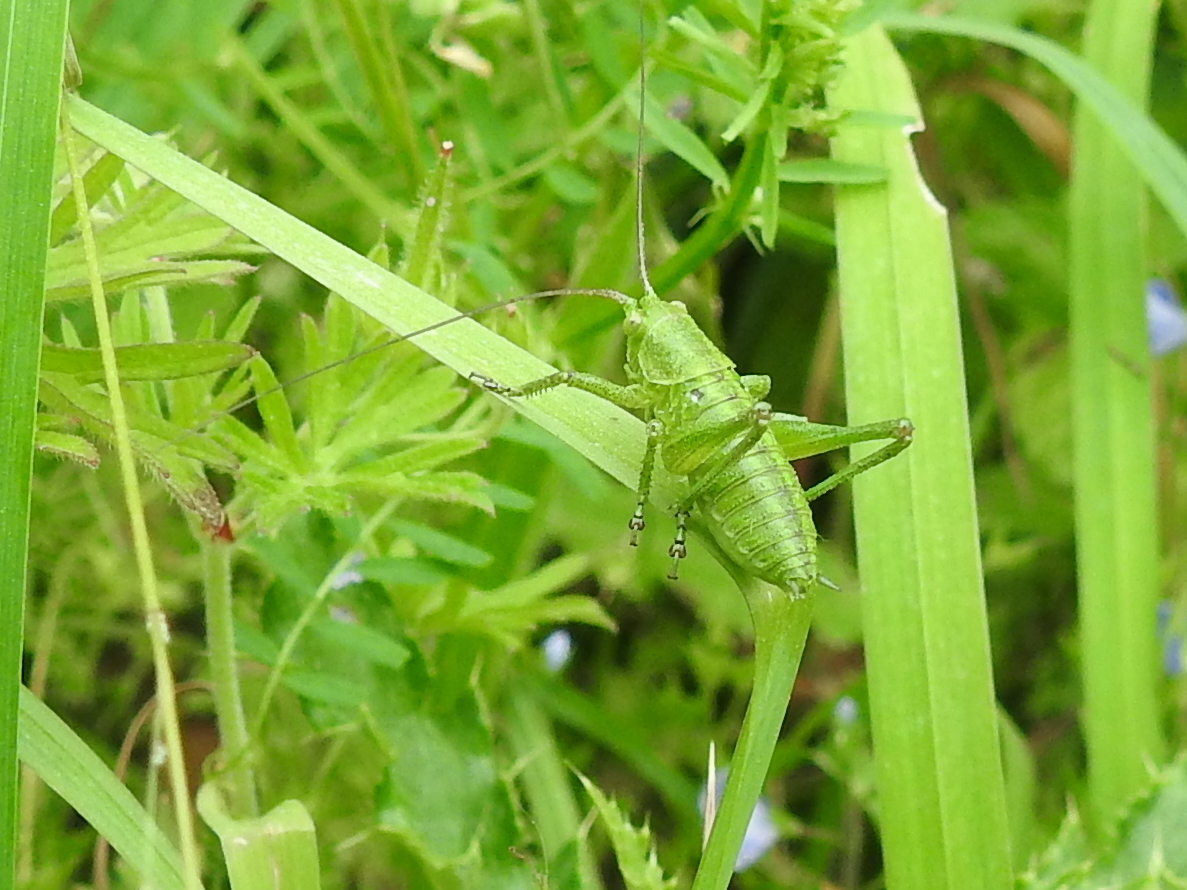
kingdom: Animalia
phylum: Arthropoda
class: Insecta
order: Orthoptera
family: Tettigoniidae
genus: Tettigonia
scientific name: Tettigonia viridissima
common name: Great green bush-cricket
